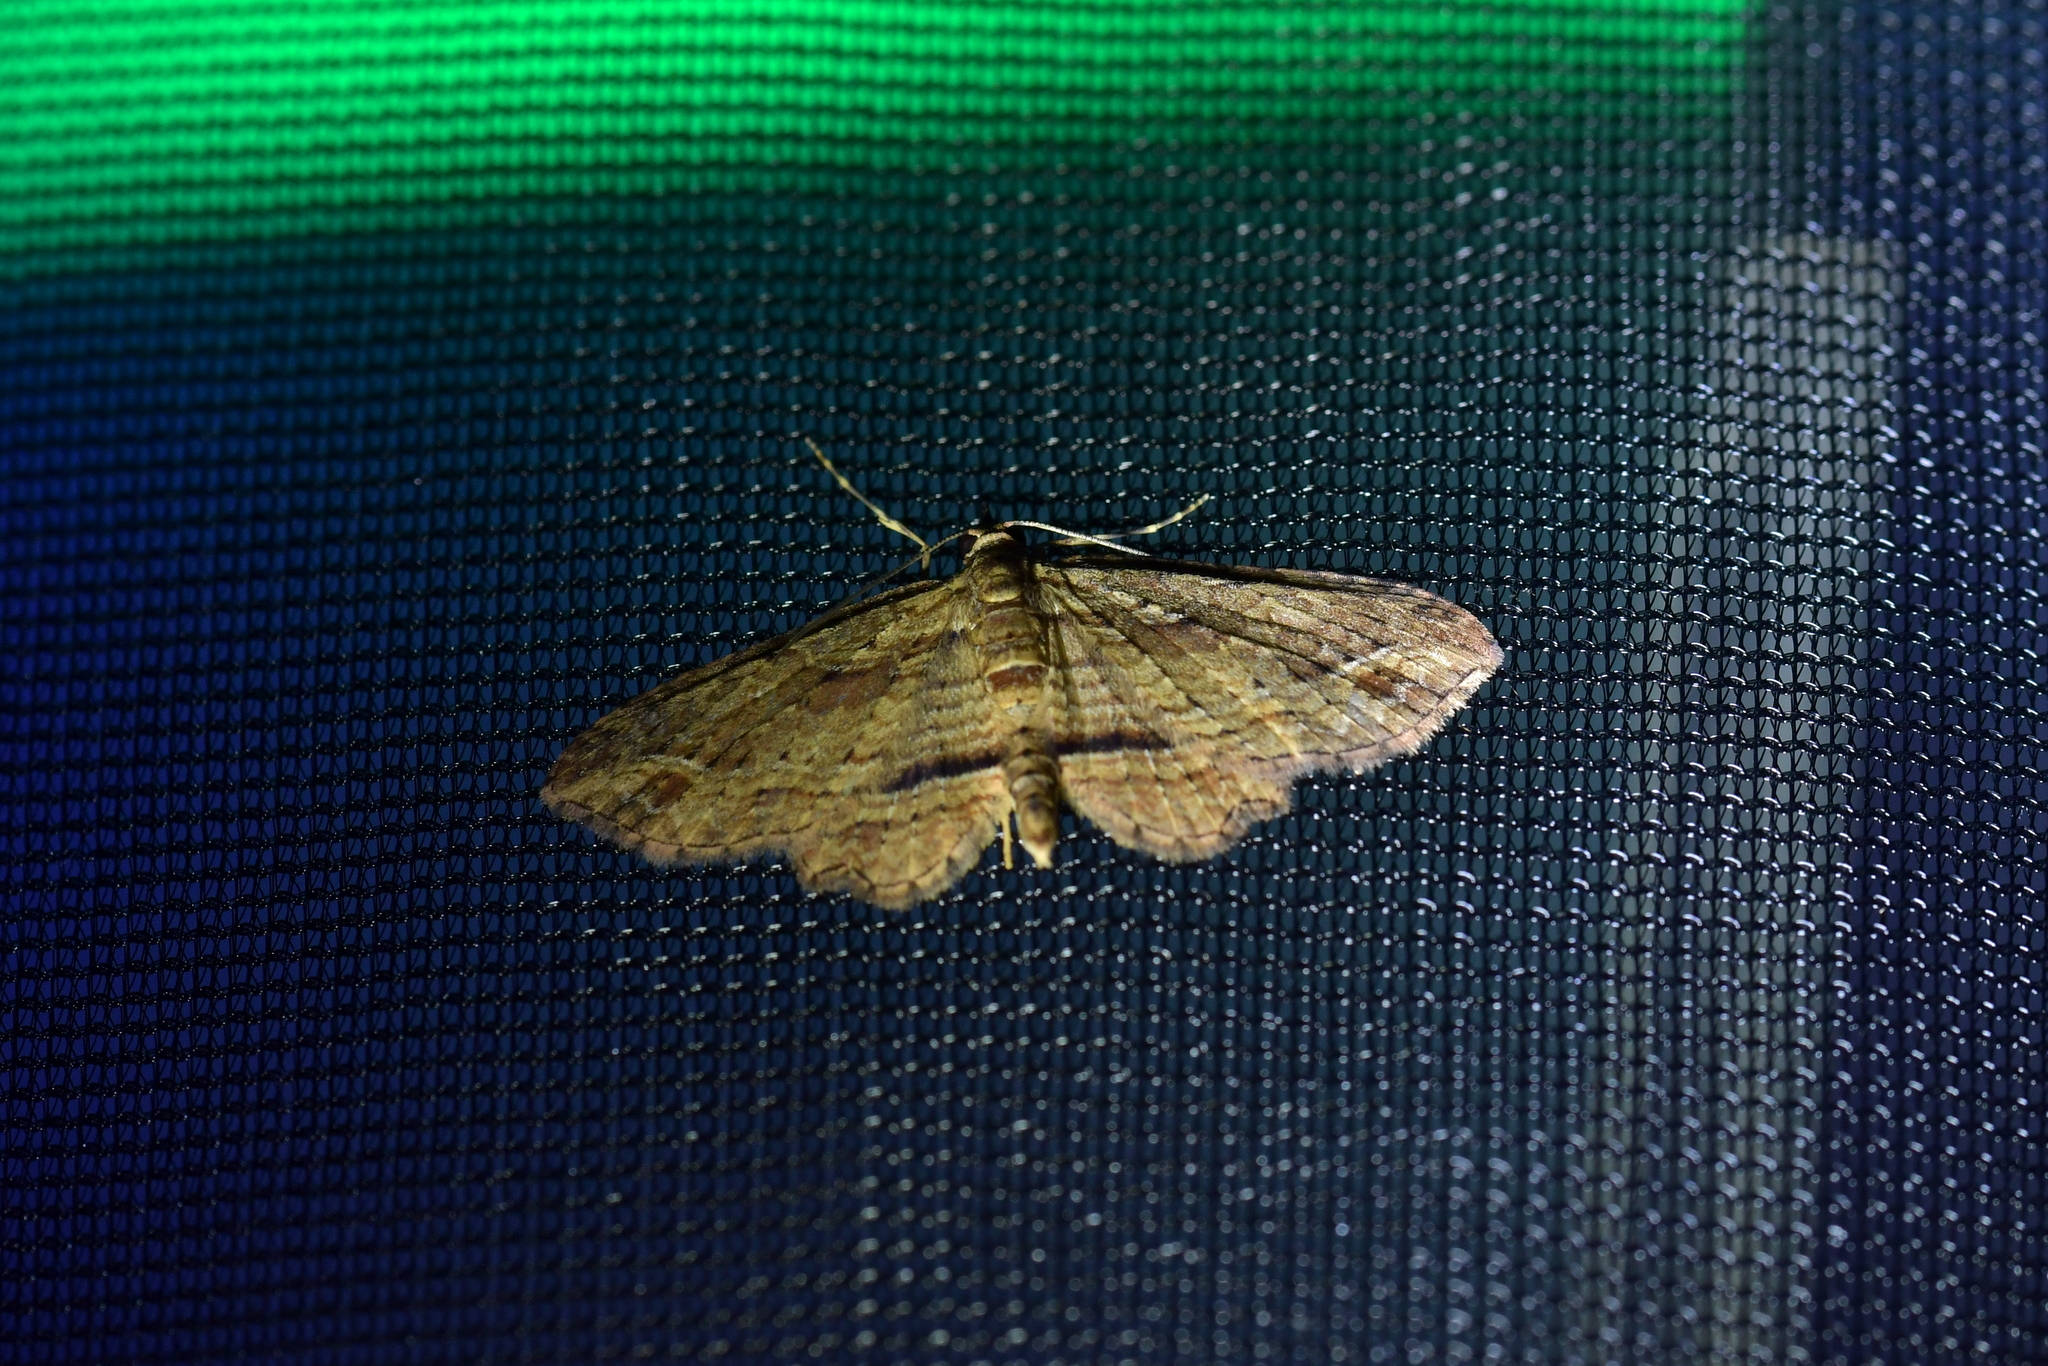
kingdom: Animalia
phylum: Arthropoda
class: Insecta
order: Lepidoptera
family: Geometridae
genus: Chloroclystis
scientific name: Chloroclystis filata
